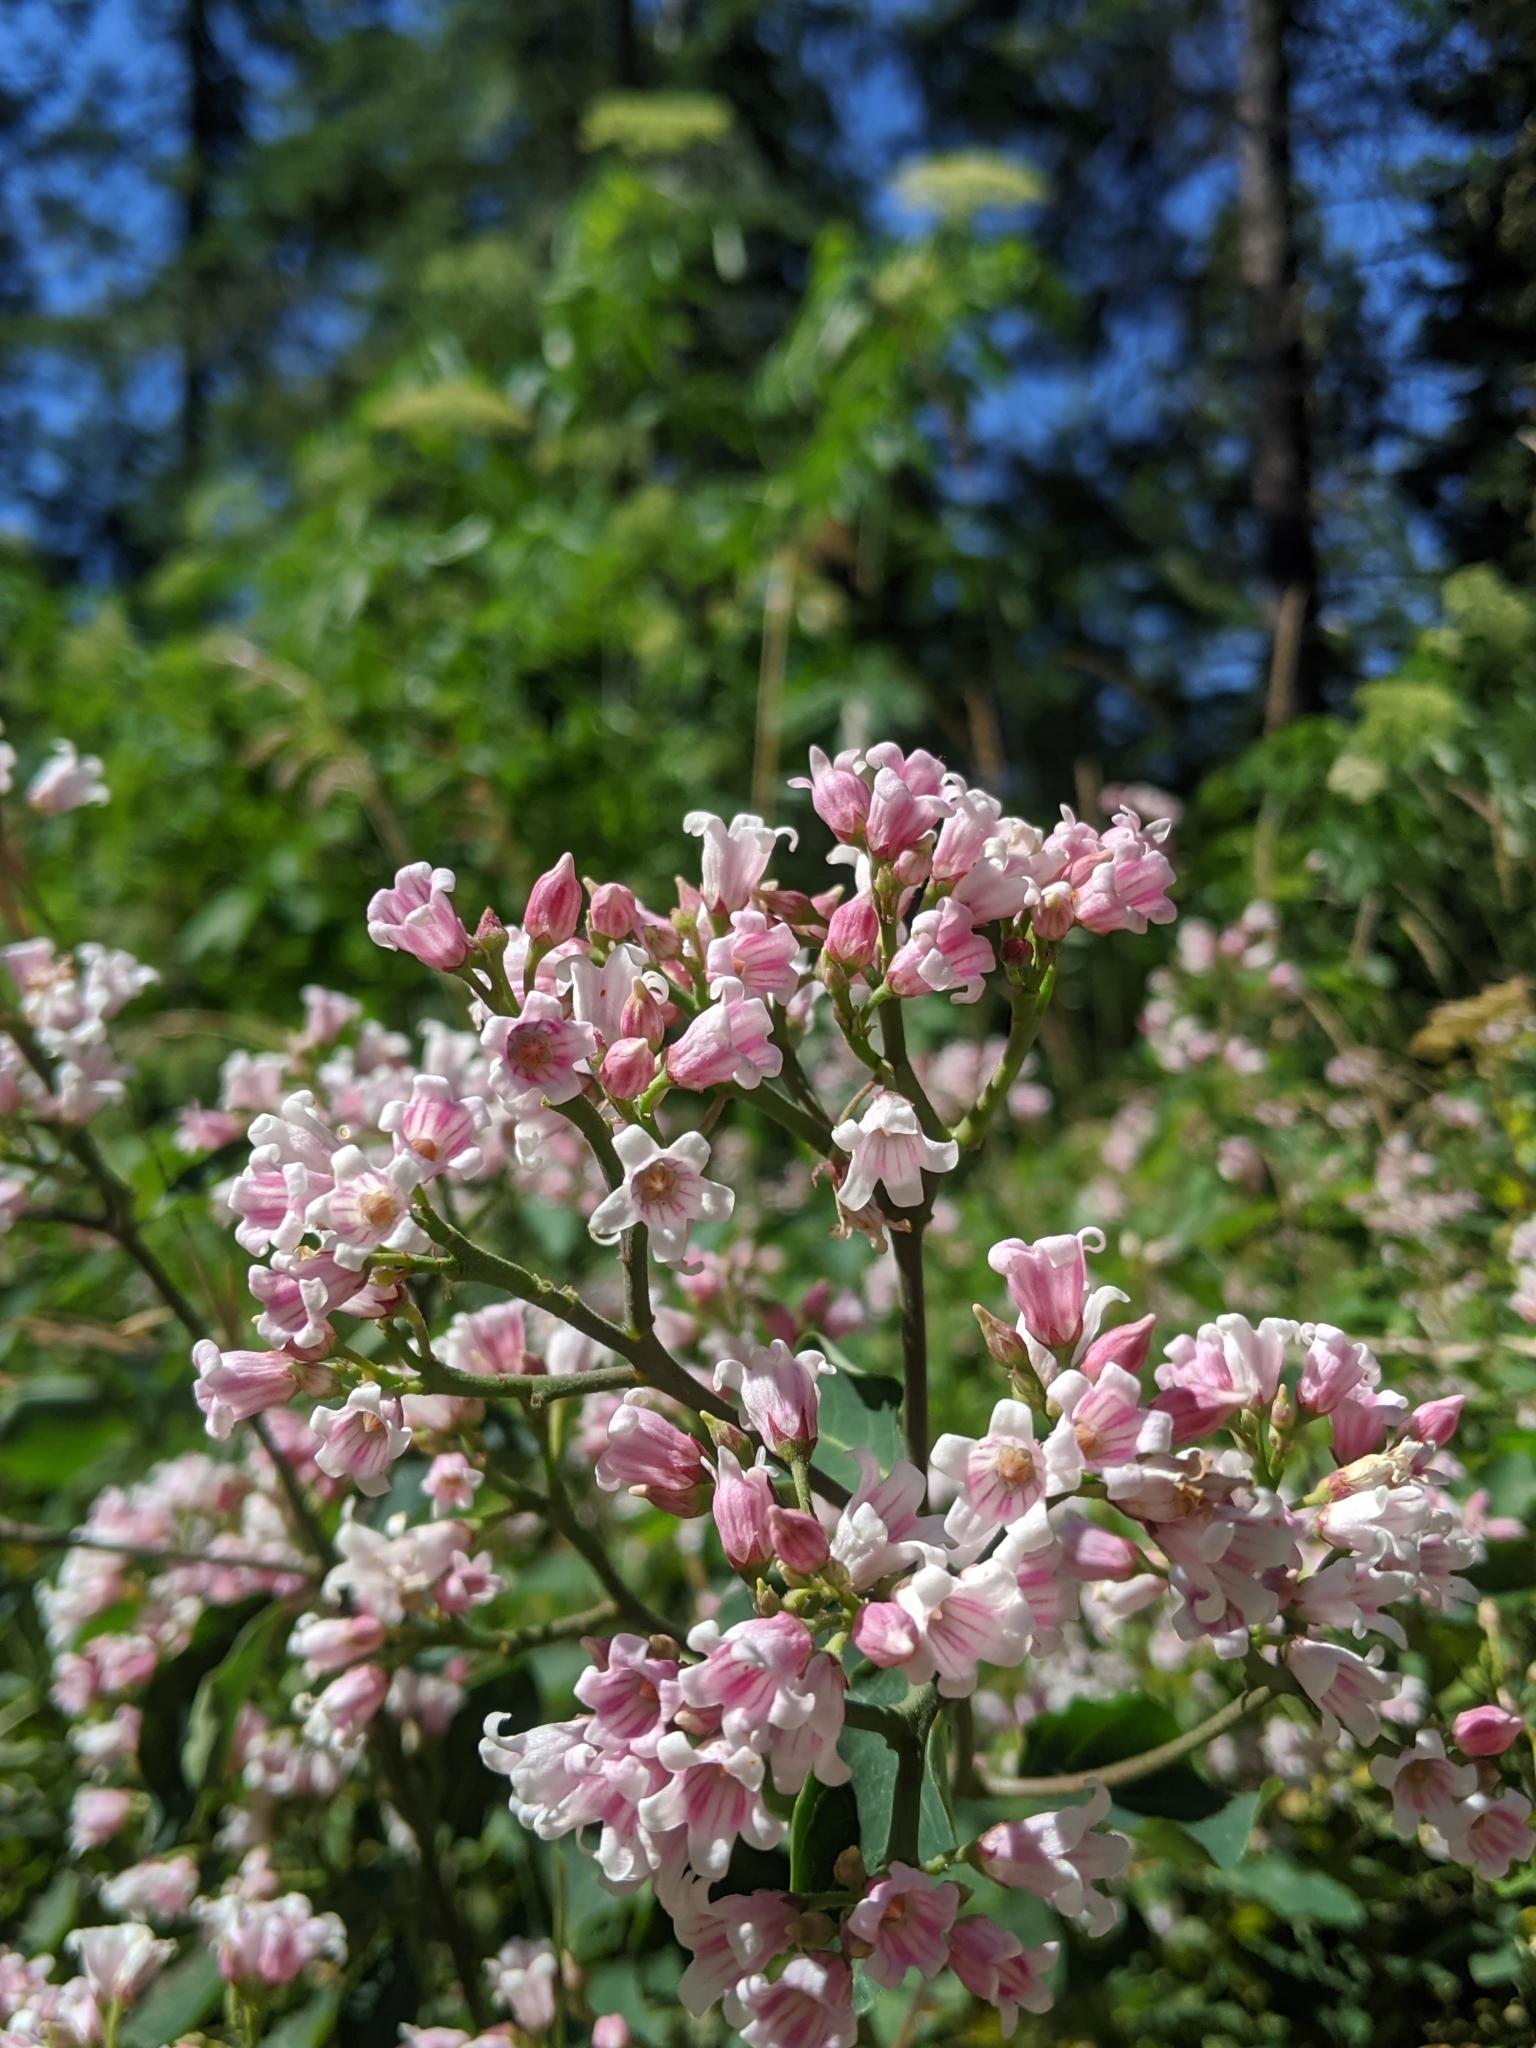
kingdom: Plantae
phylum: Tracheophyta
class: Magnoliopsida
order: Gentianales
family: Apocynaceae
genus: Apocynum
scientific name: Apocynum androsaemifolium
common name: Spreading dogbane
